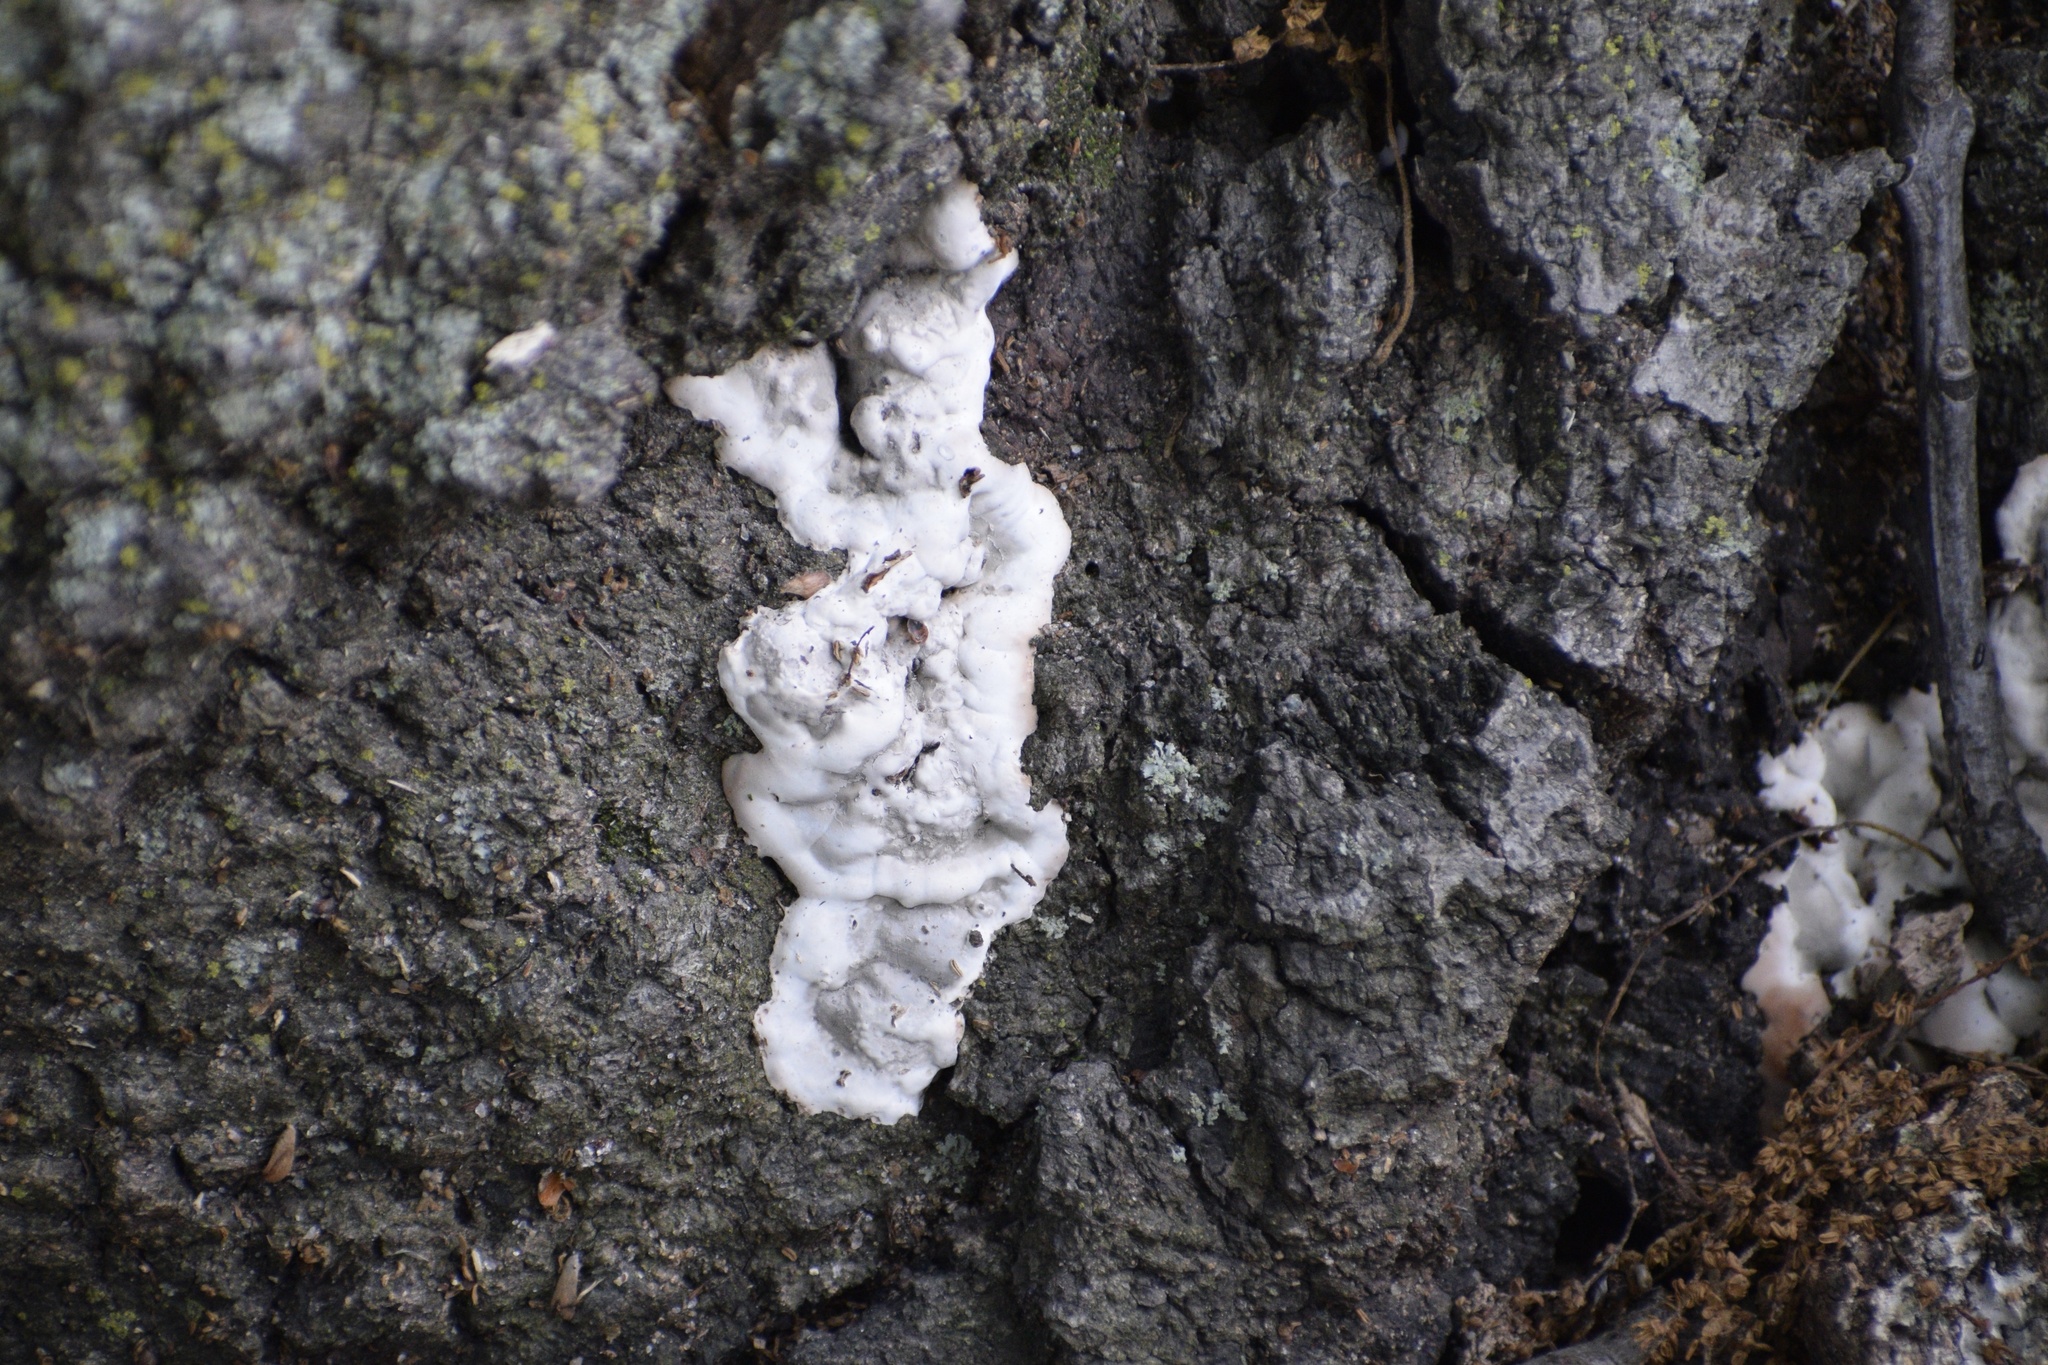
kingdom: Fungi
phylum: Ascomycota
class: Sordariomycetes
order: Xylariales
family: Xylariaceae
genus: Kretzschmaria
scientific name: Kretzschmaria deusta
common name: Brittle cinder
